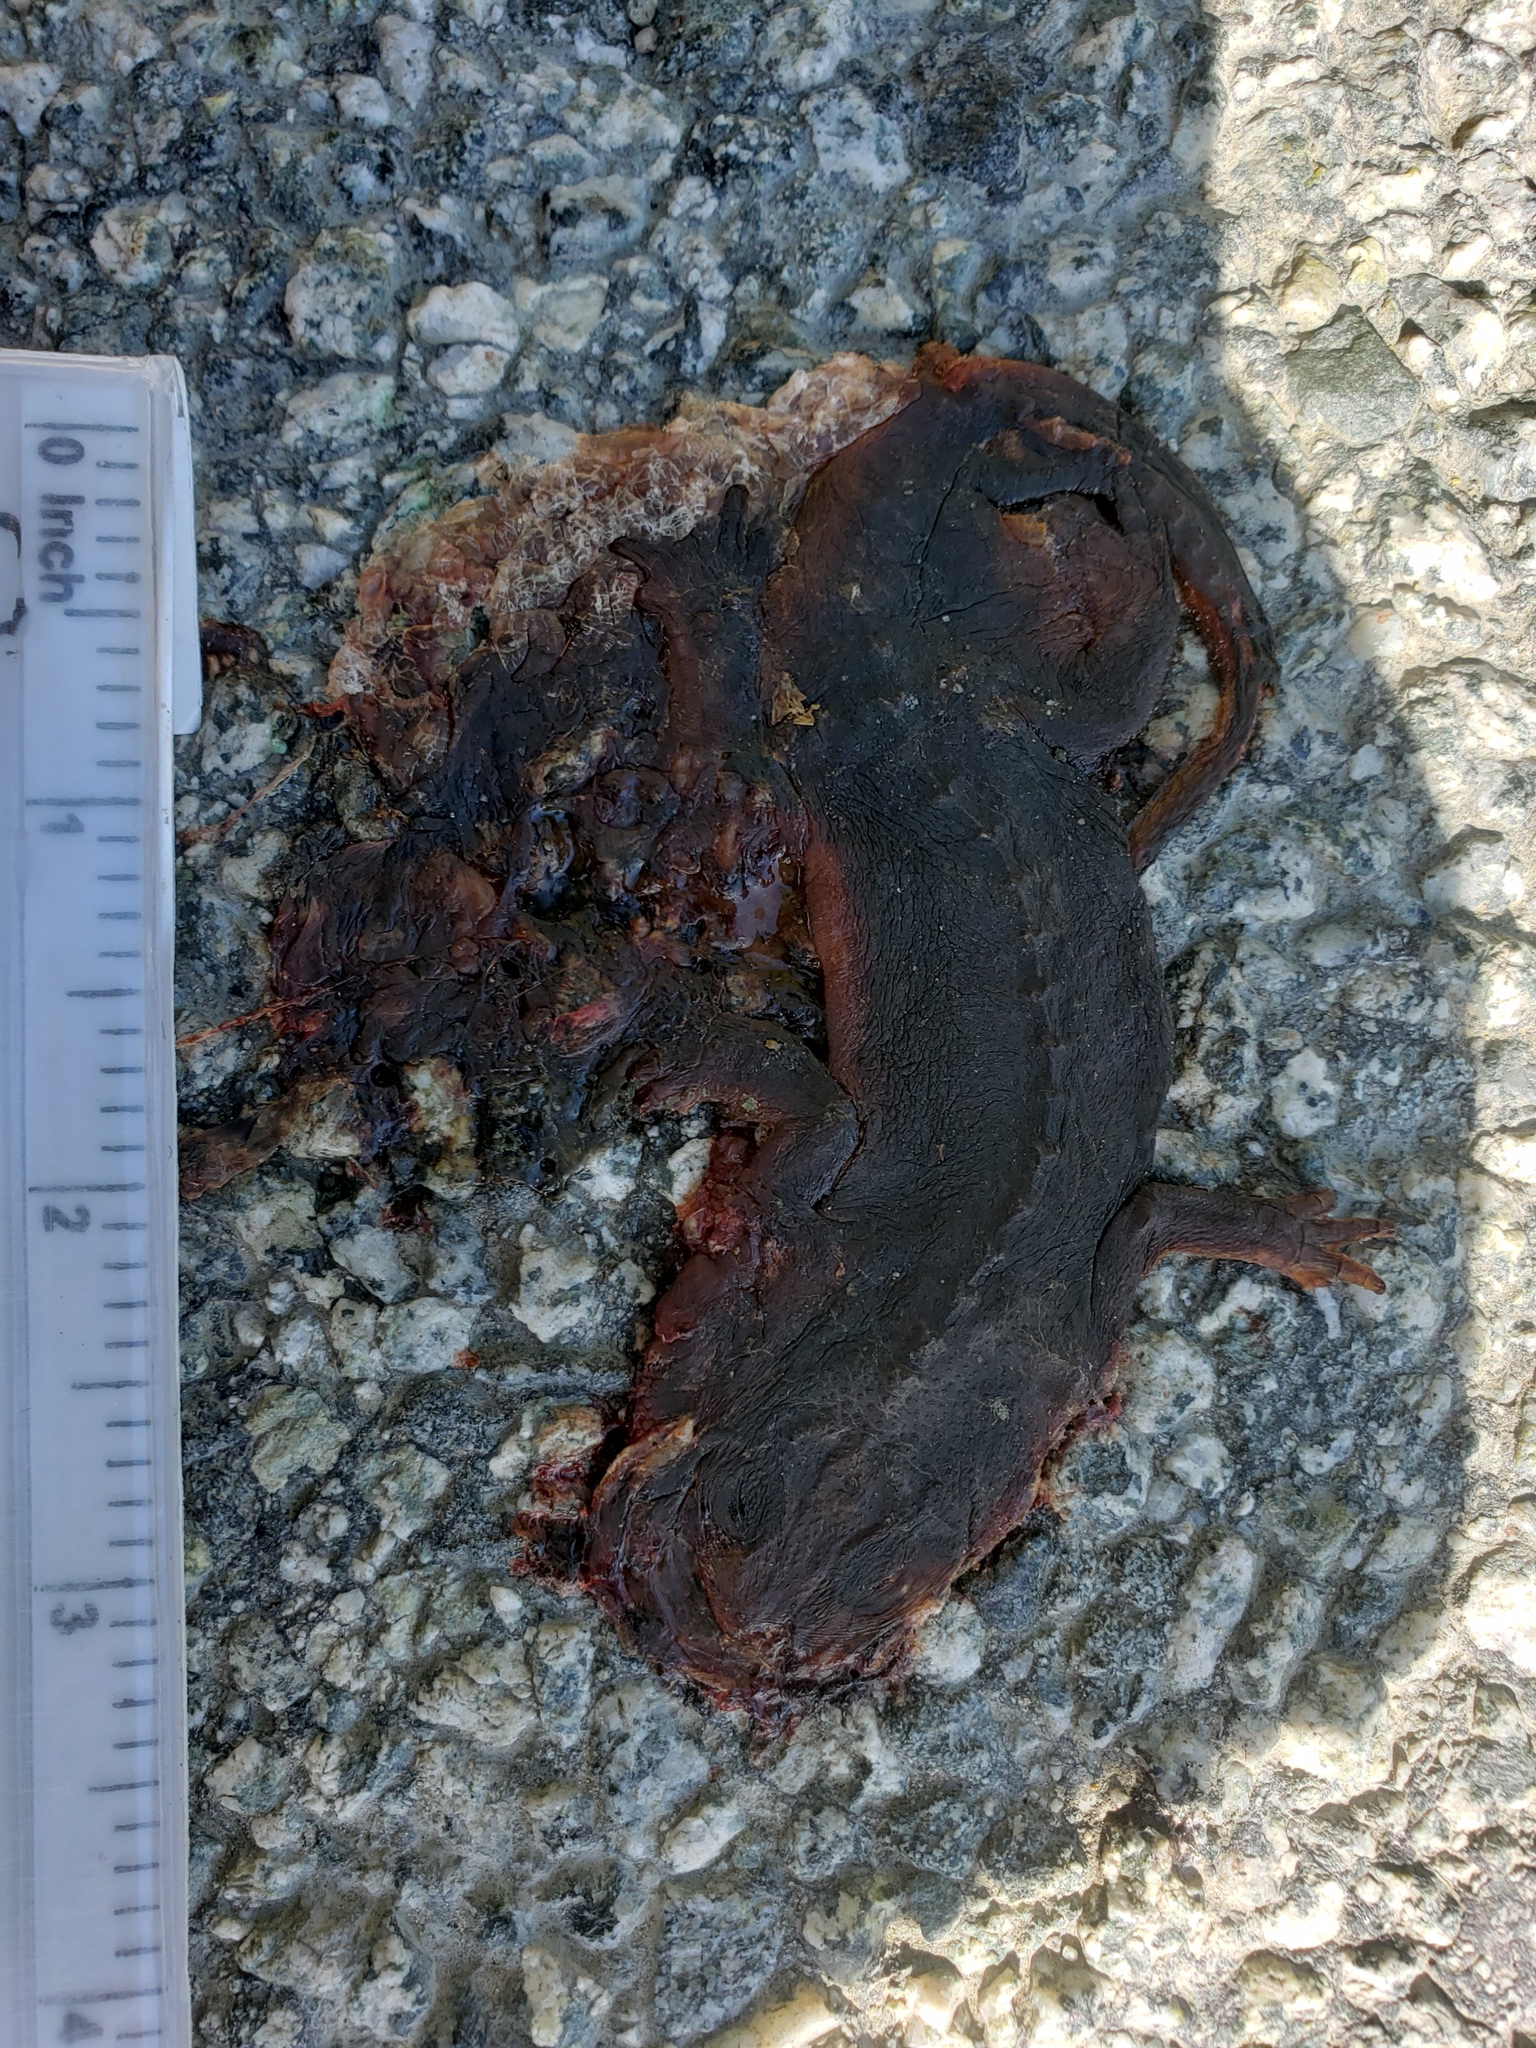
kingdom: Animalia
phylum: Chordata
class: Amphibia
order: Caudata
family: Salamandridae
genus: Taricha
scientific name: Taricha
